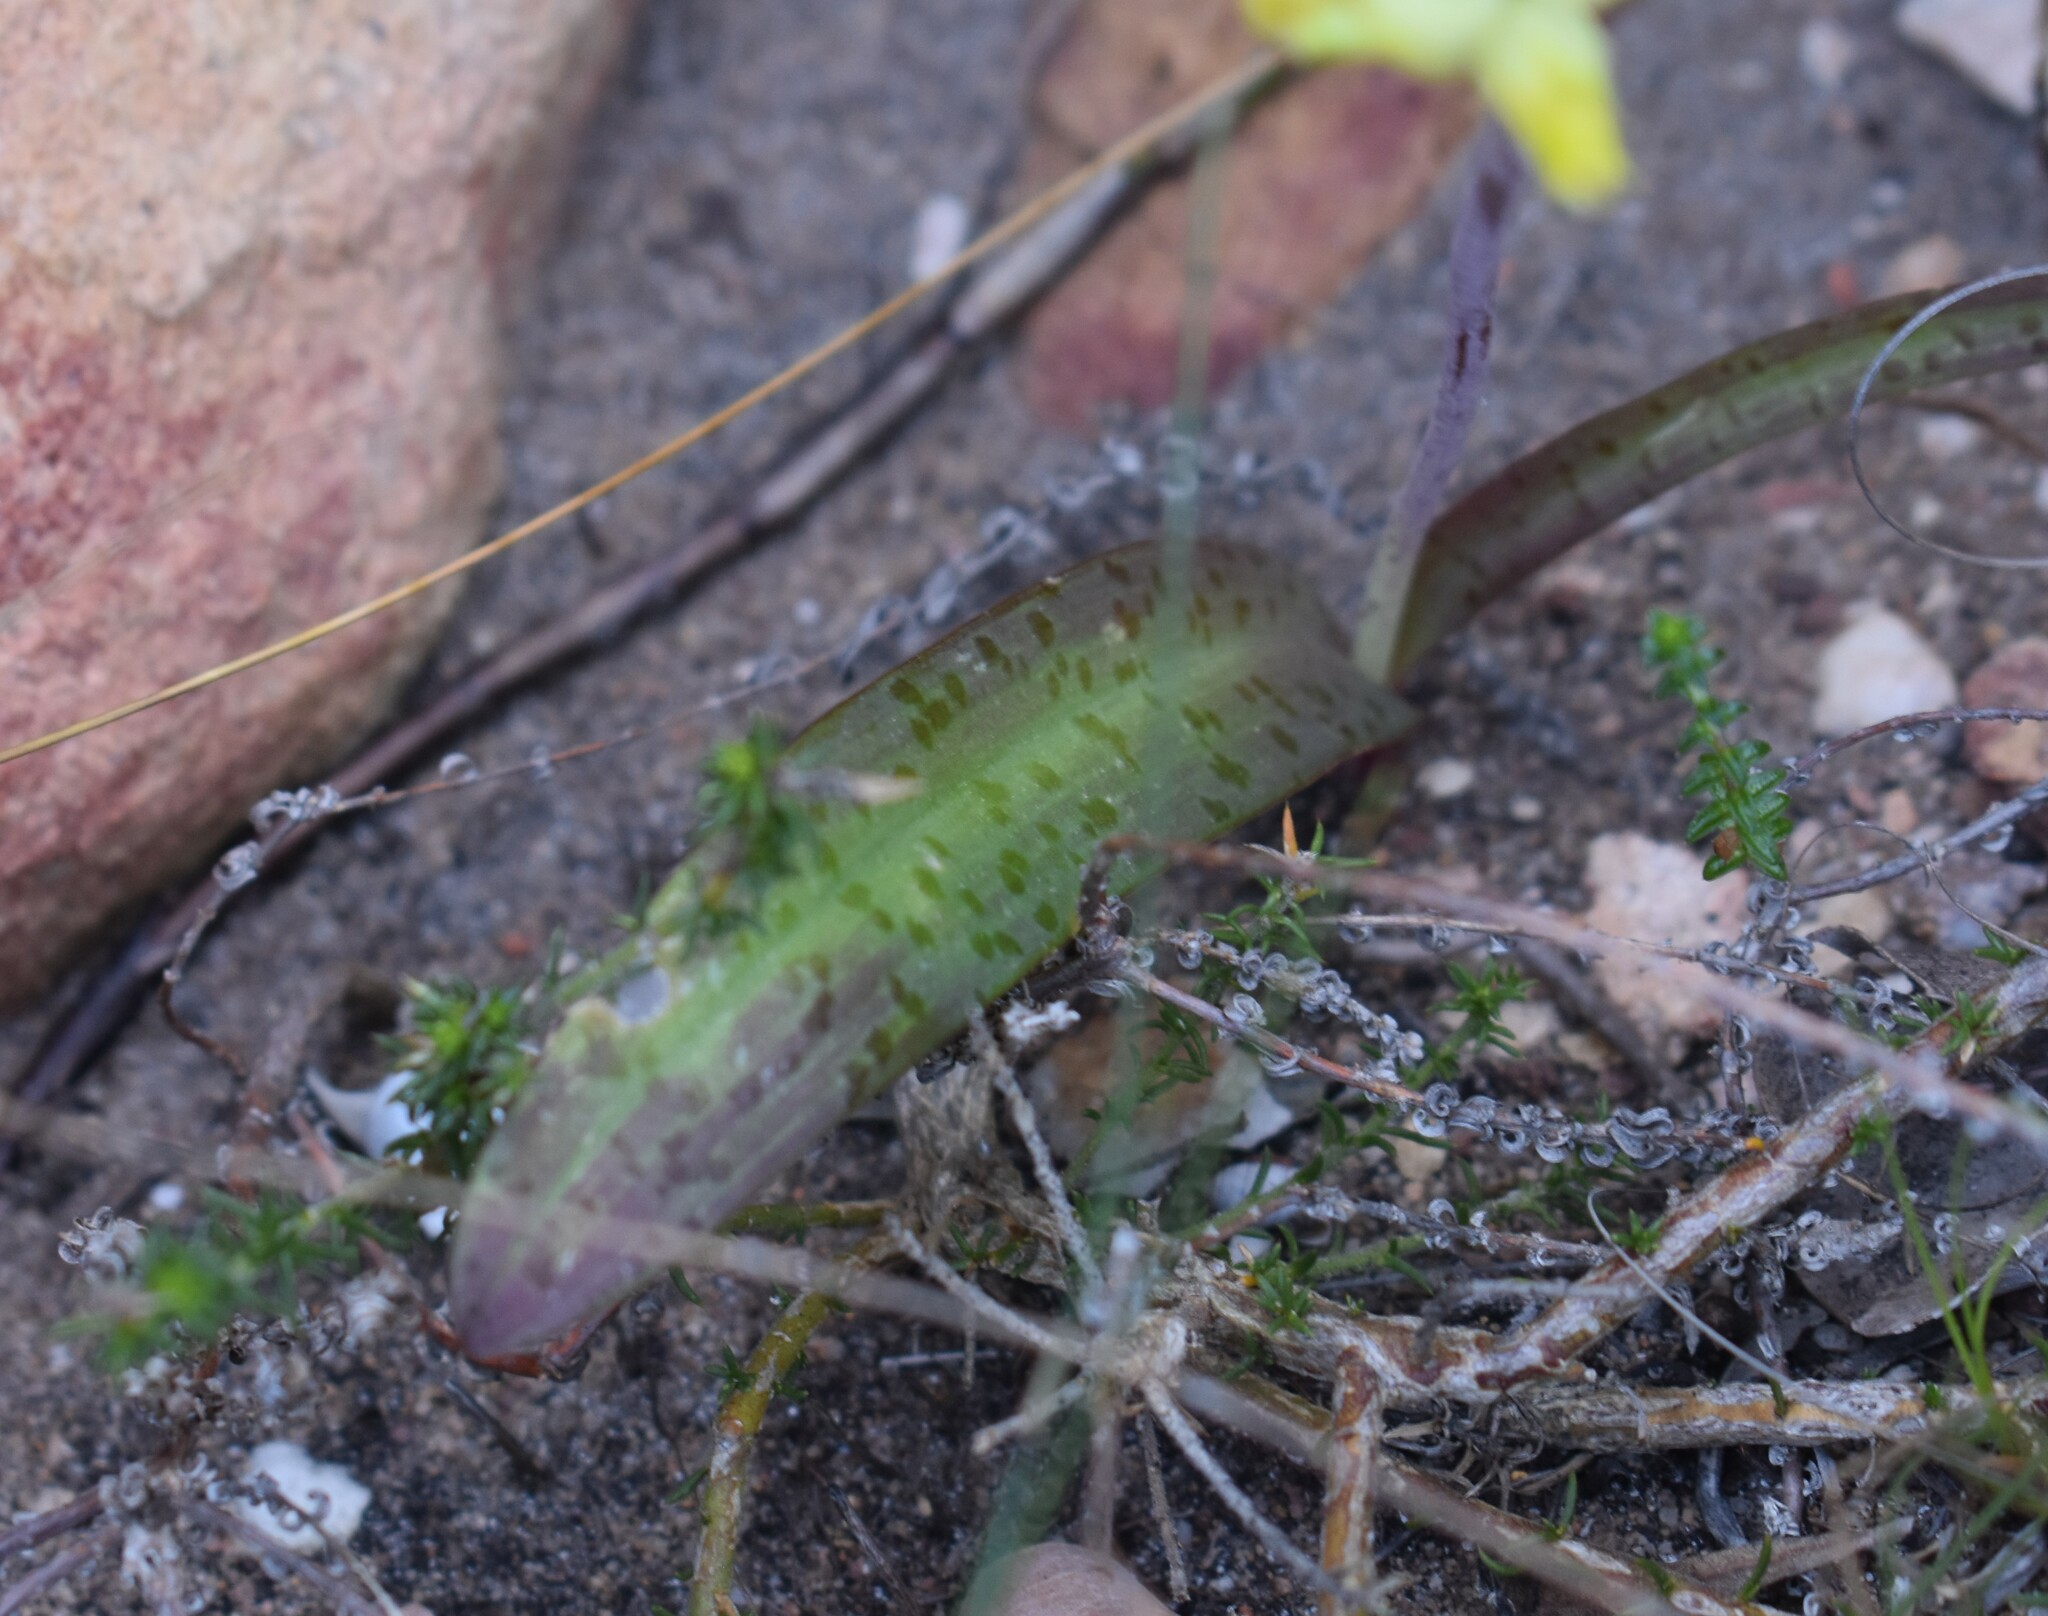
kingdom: Plantae
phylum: Tracheophyta
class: Liliopsida
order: Asparagales
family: Asparagaceae
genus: Lachenalia
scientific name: Lachenalia lutea
